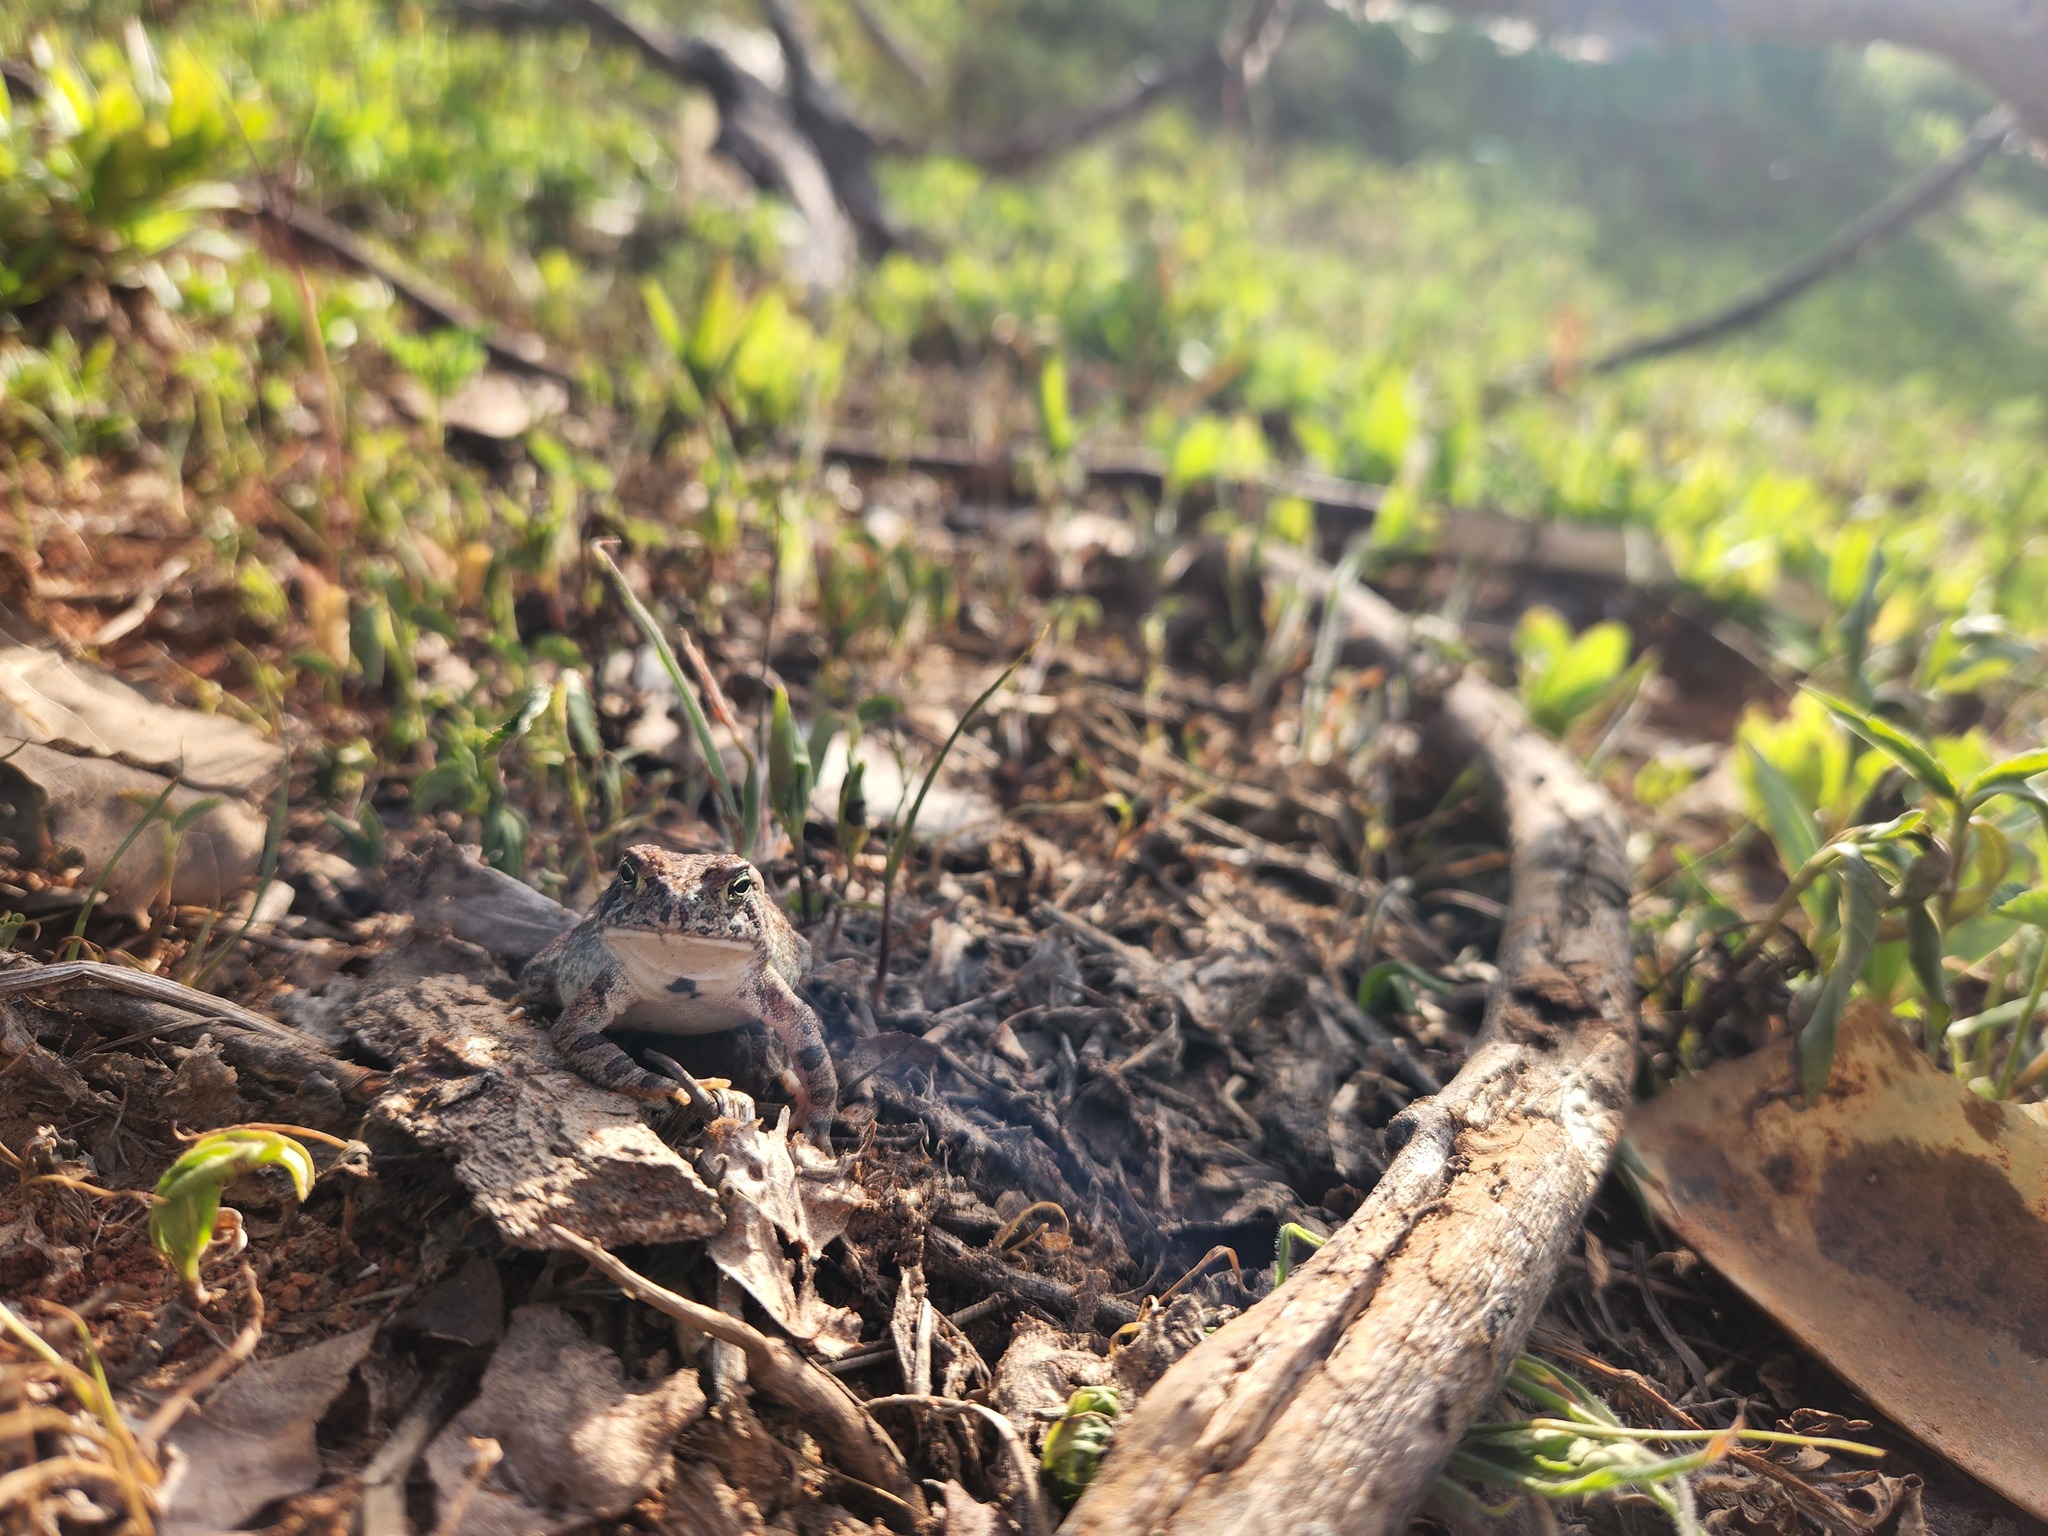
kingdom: Animalia
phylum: Chordata
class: Amphibia
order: Anura
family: Bufonidae
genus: Anaxyrus
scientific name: Anaxyrus fowleri
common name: Fowler's toad
